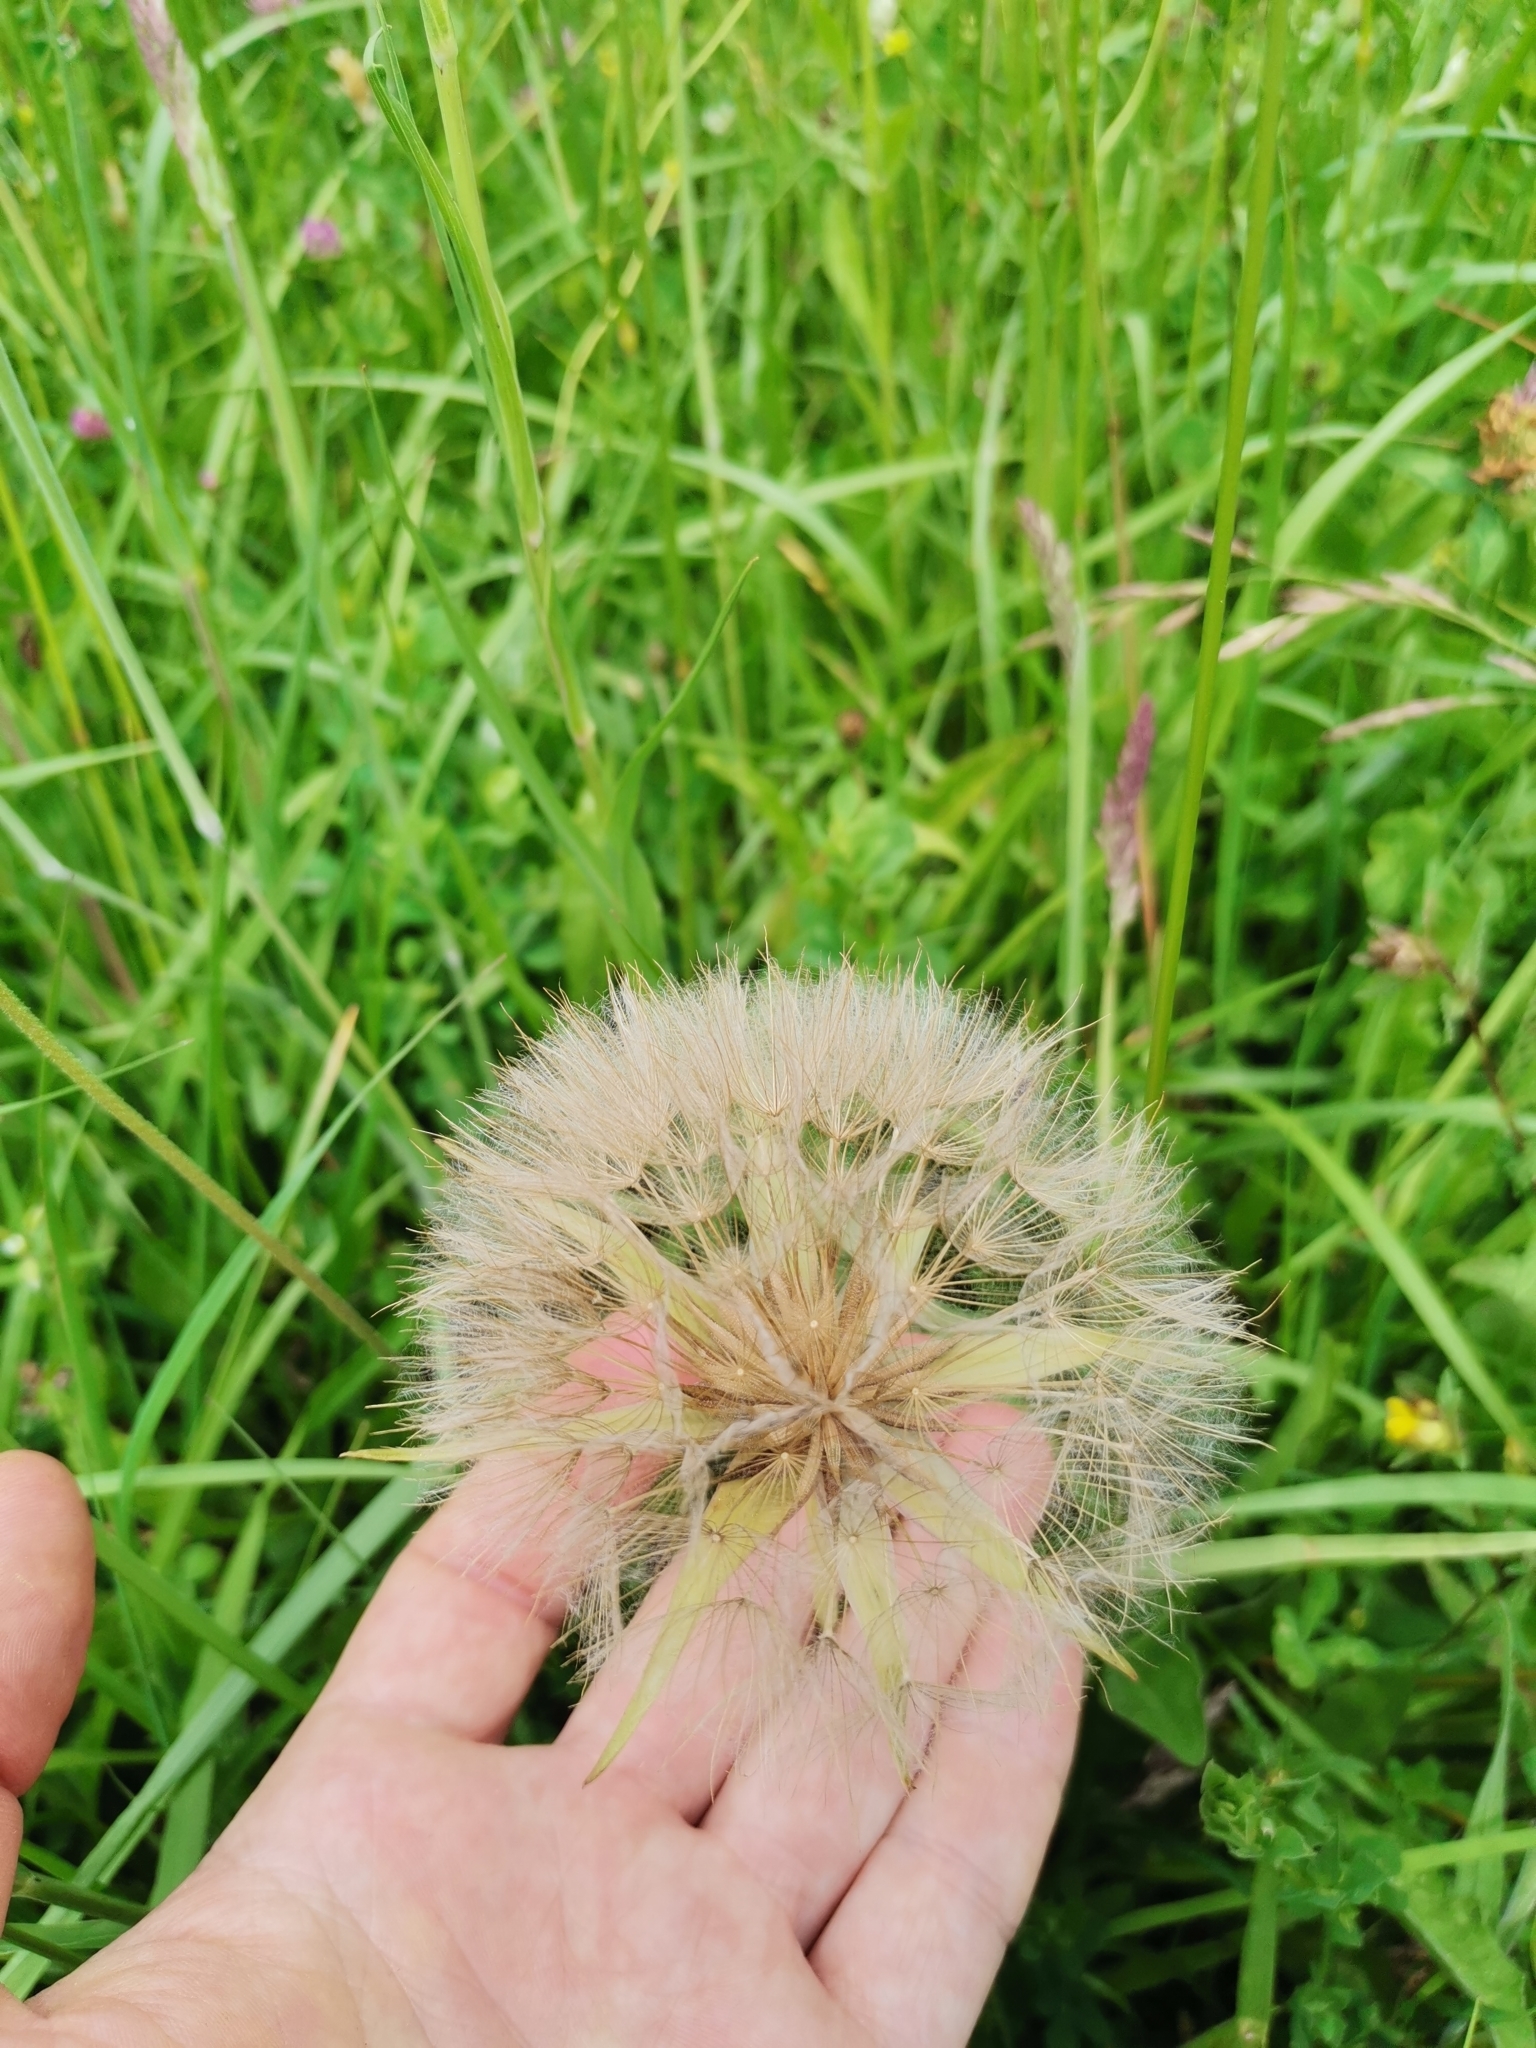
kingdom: Plantae
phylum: Tracheophyta
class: Magnoliopsida
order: Asterales
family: Asteraceae
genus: Tragopogon
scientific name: Tragopogon dubius
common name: Yellow salsify
